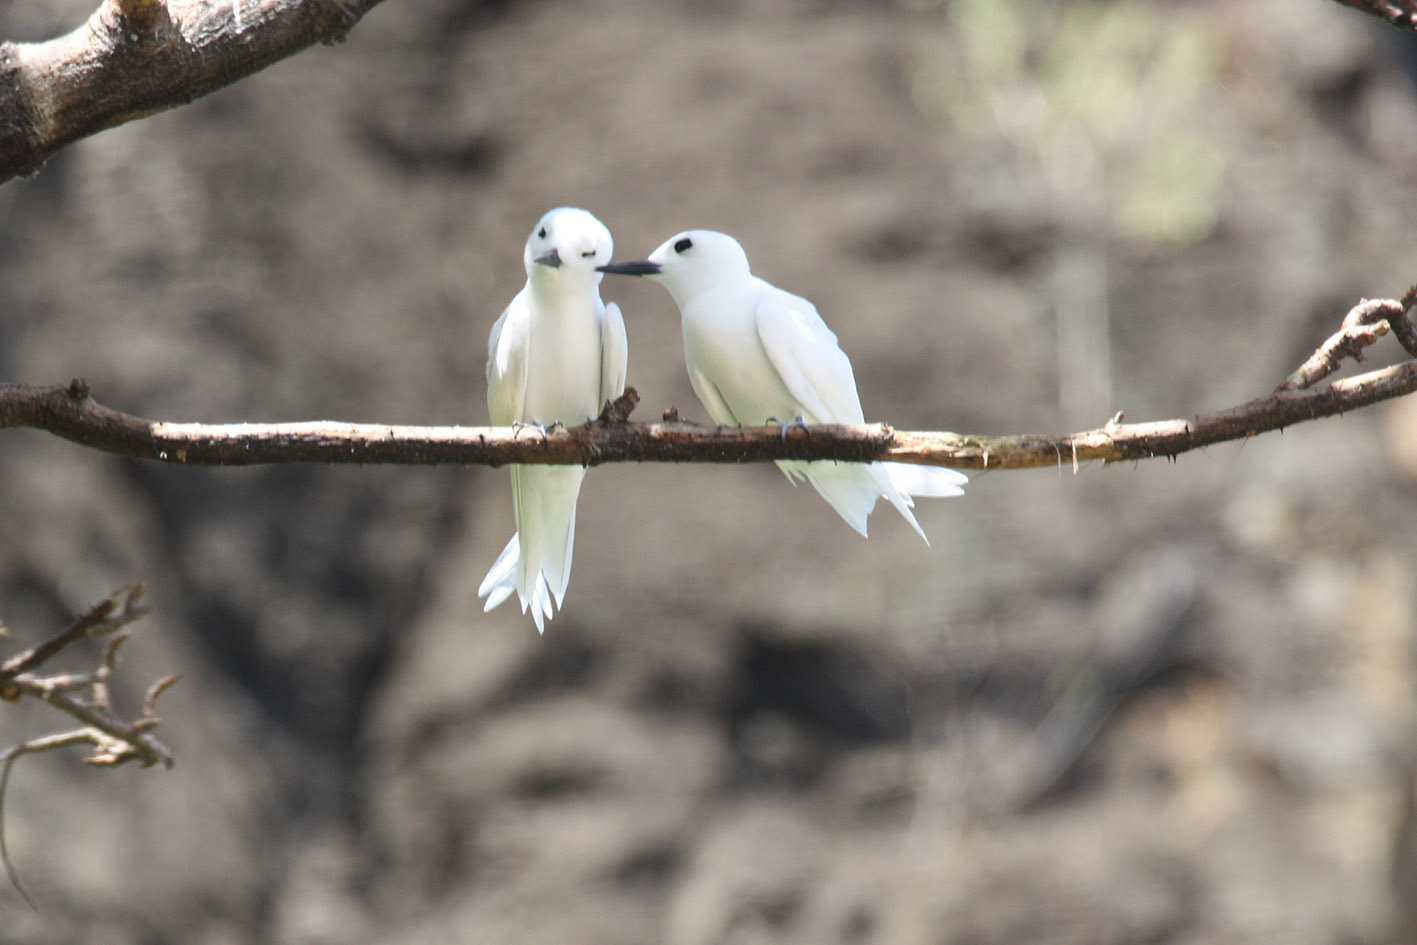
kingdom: Animalia
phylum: Chordata
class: Aves
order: Charadriiformes
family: Laridae
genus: Gygis
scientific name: Gygis alba
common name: White tern
